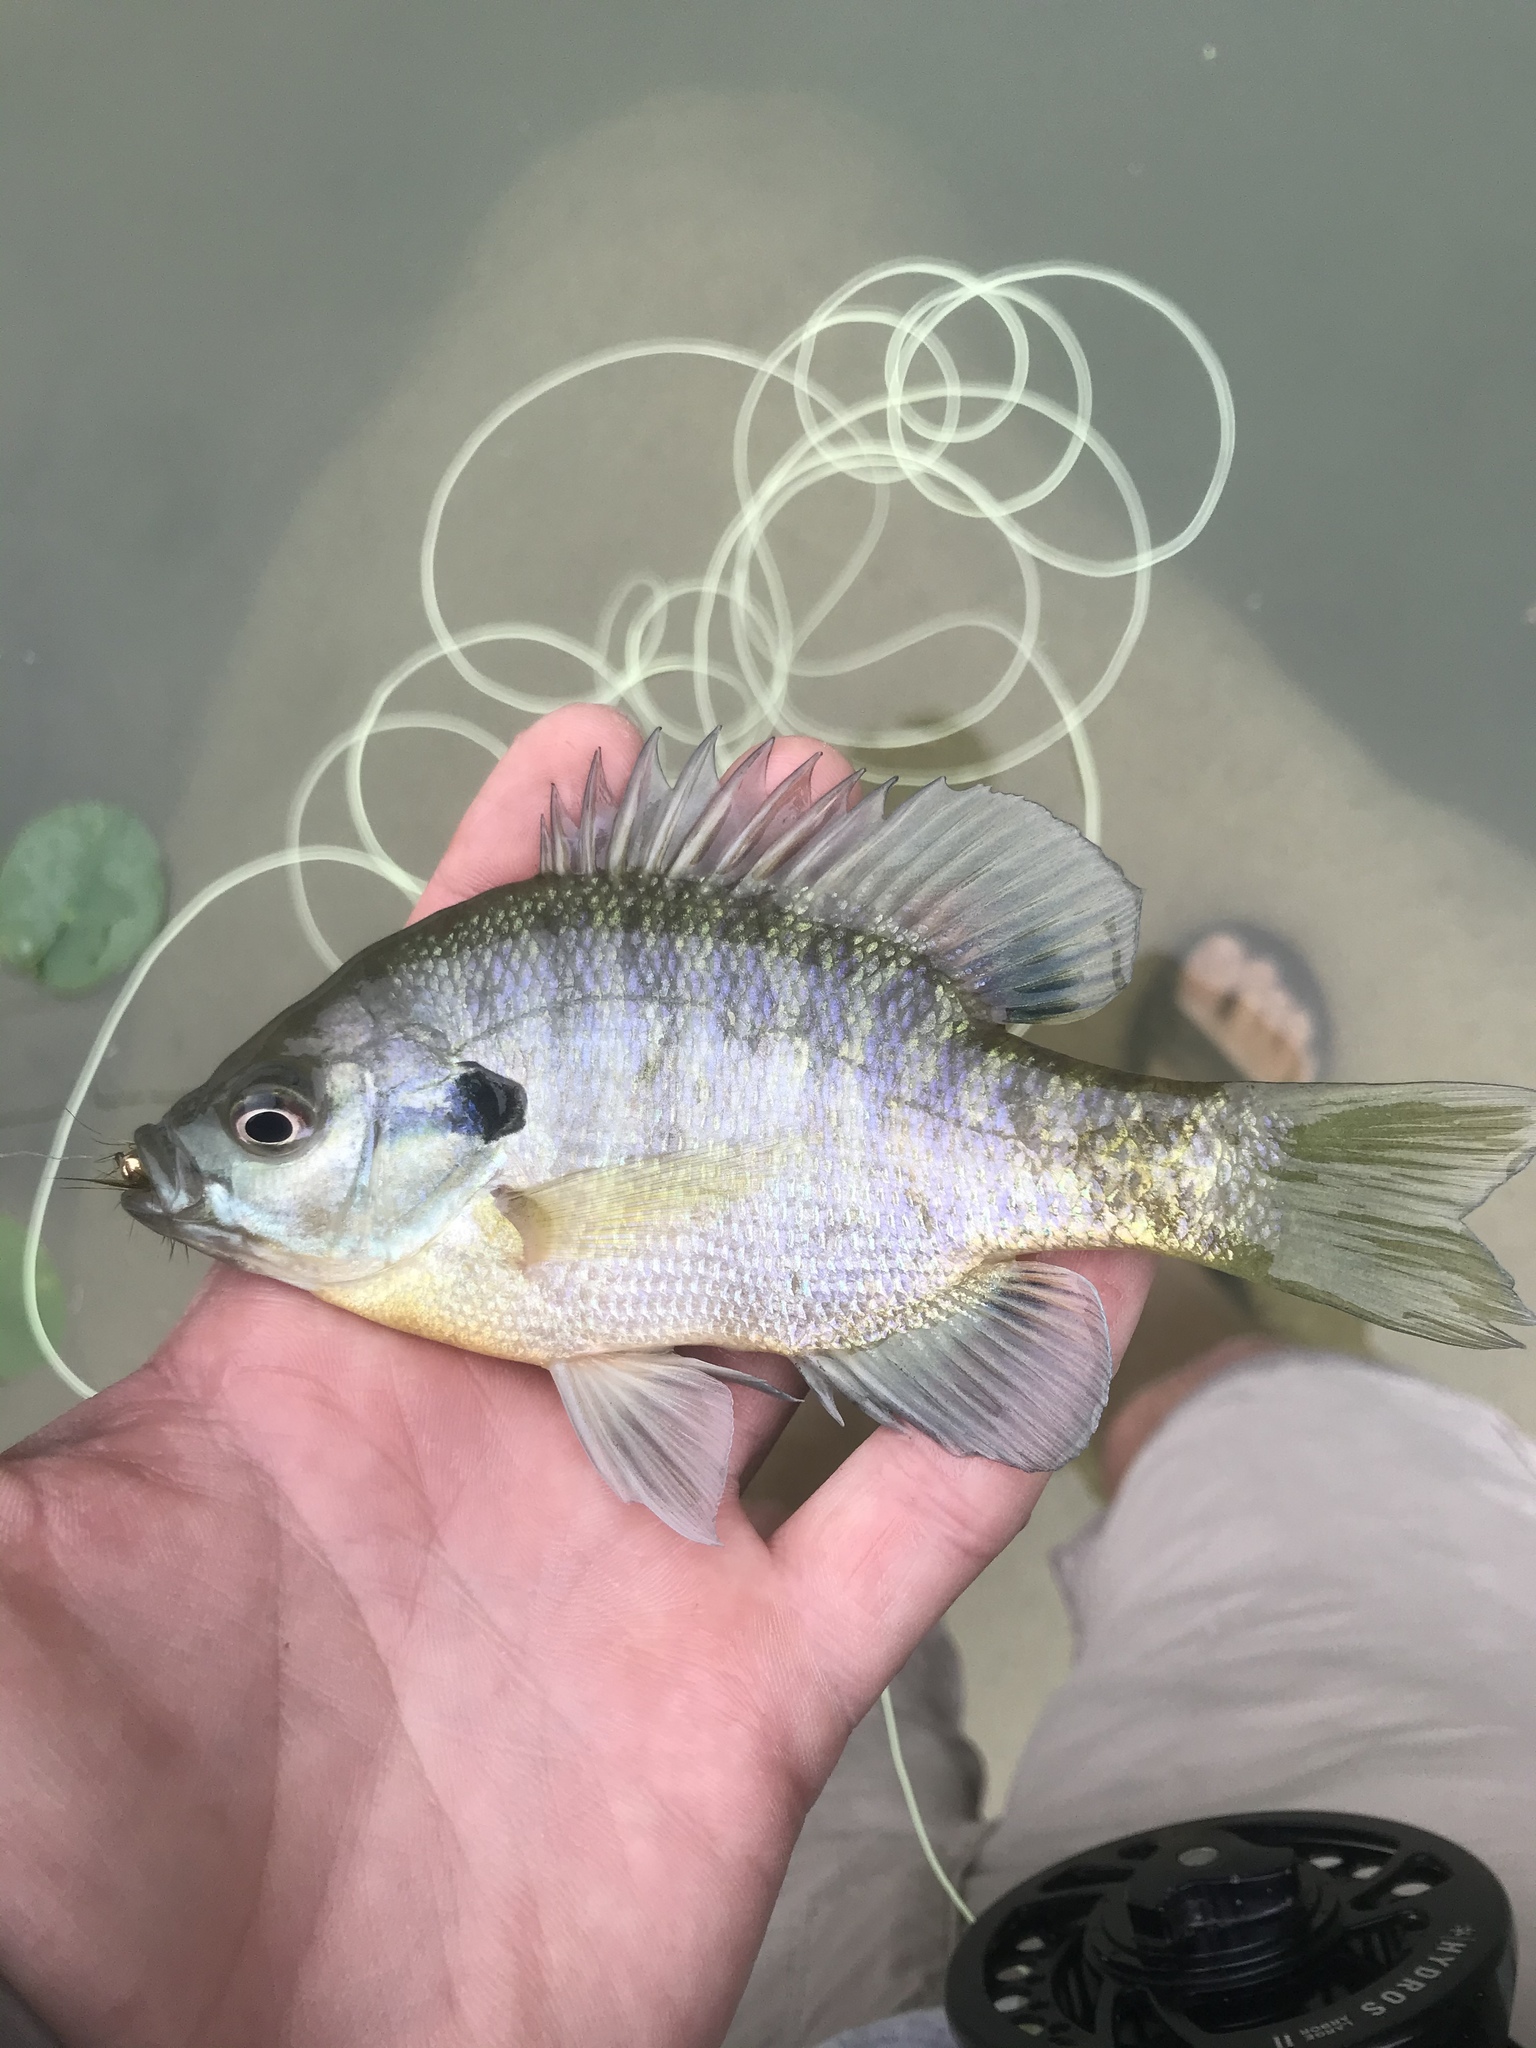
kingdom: Animalia
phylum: Chordata
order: Perciformes
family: Centrarchidae
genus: Lepomis
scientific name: Lepomis macrochirus
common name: Bluegill
